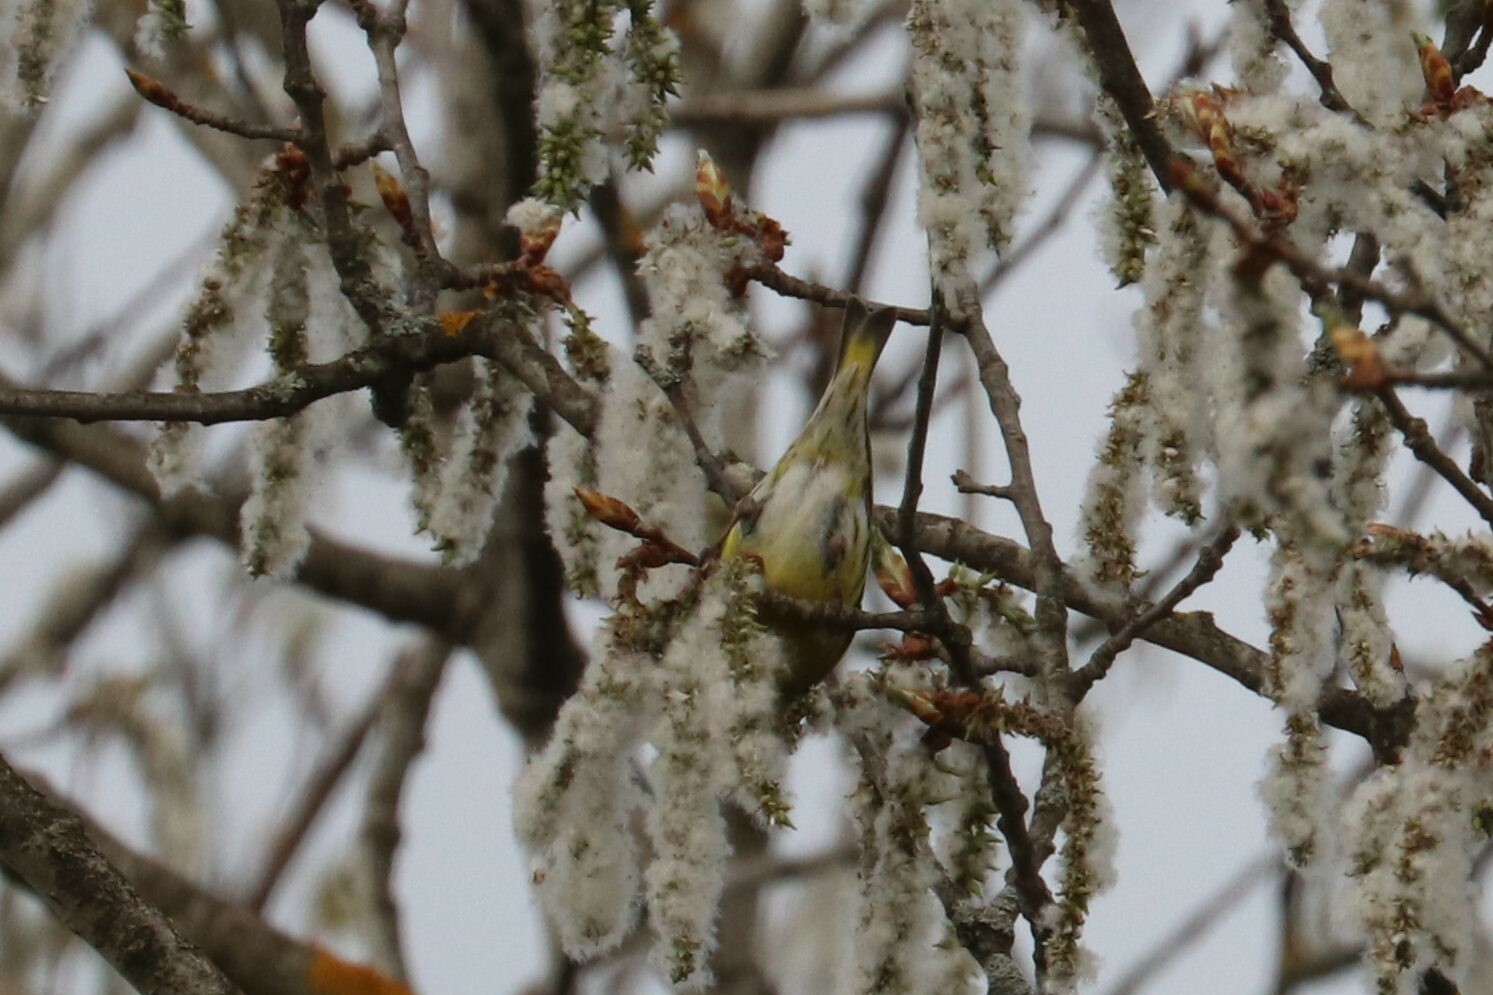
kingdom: Animalia
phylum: Chordata
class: Aves
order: Passeriformes
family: Fringillidae
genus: Spinus
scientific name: Spinus spinus
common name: Eurasian siskin
